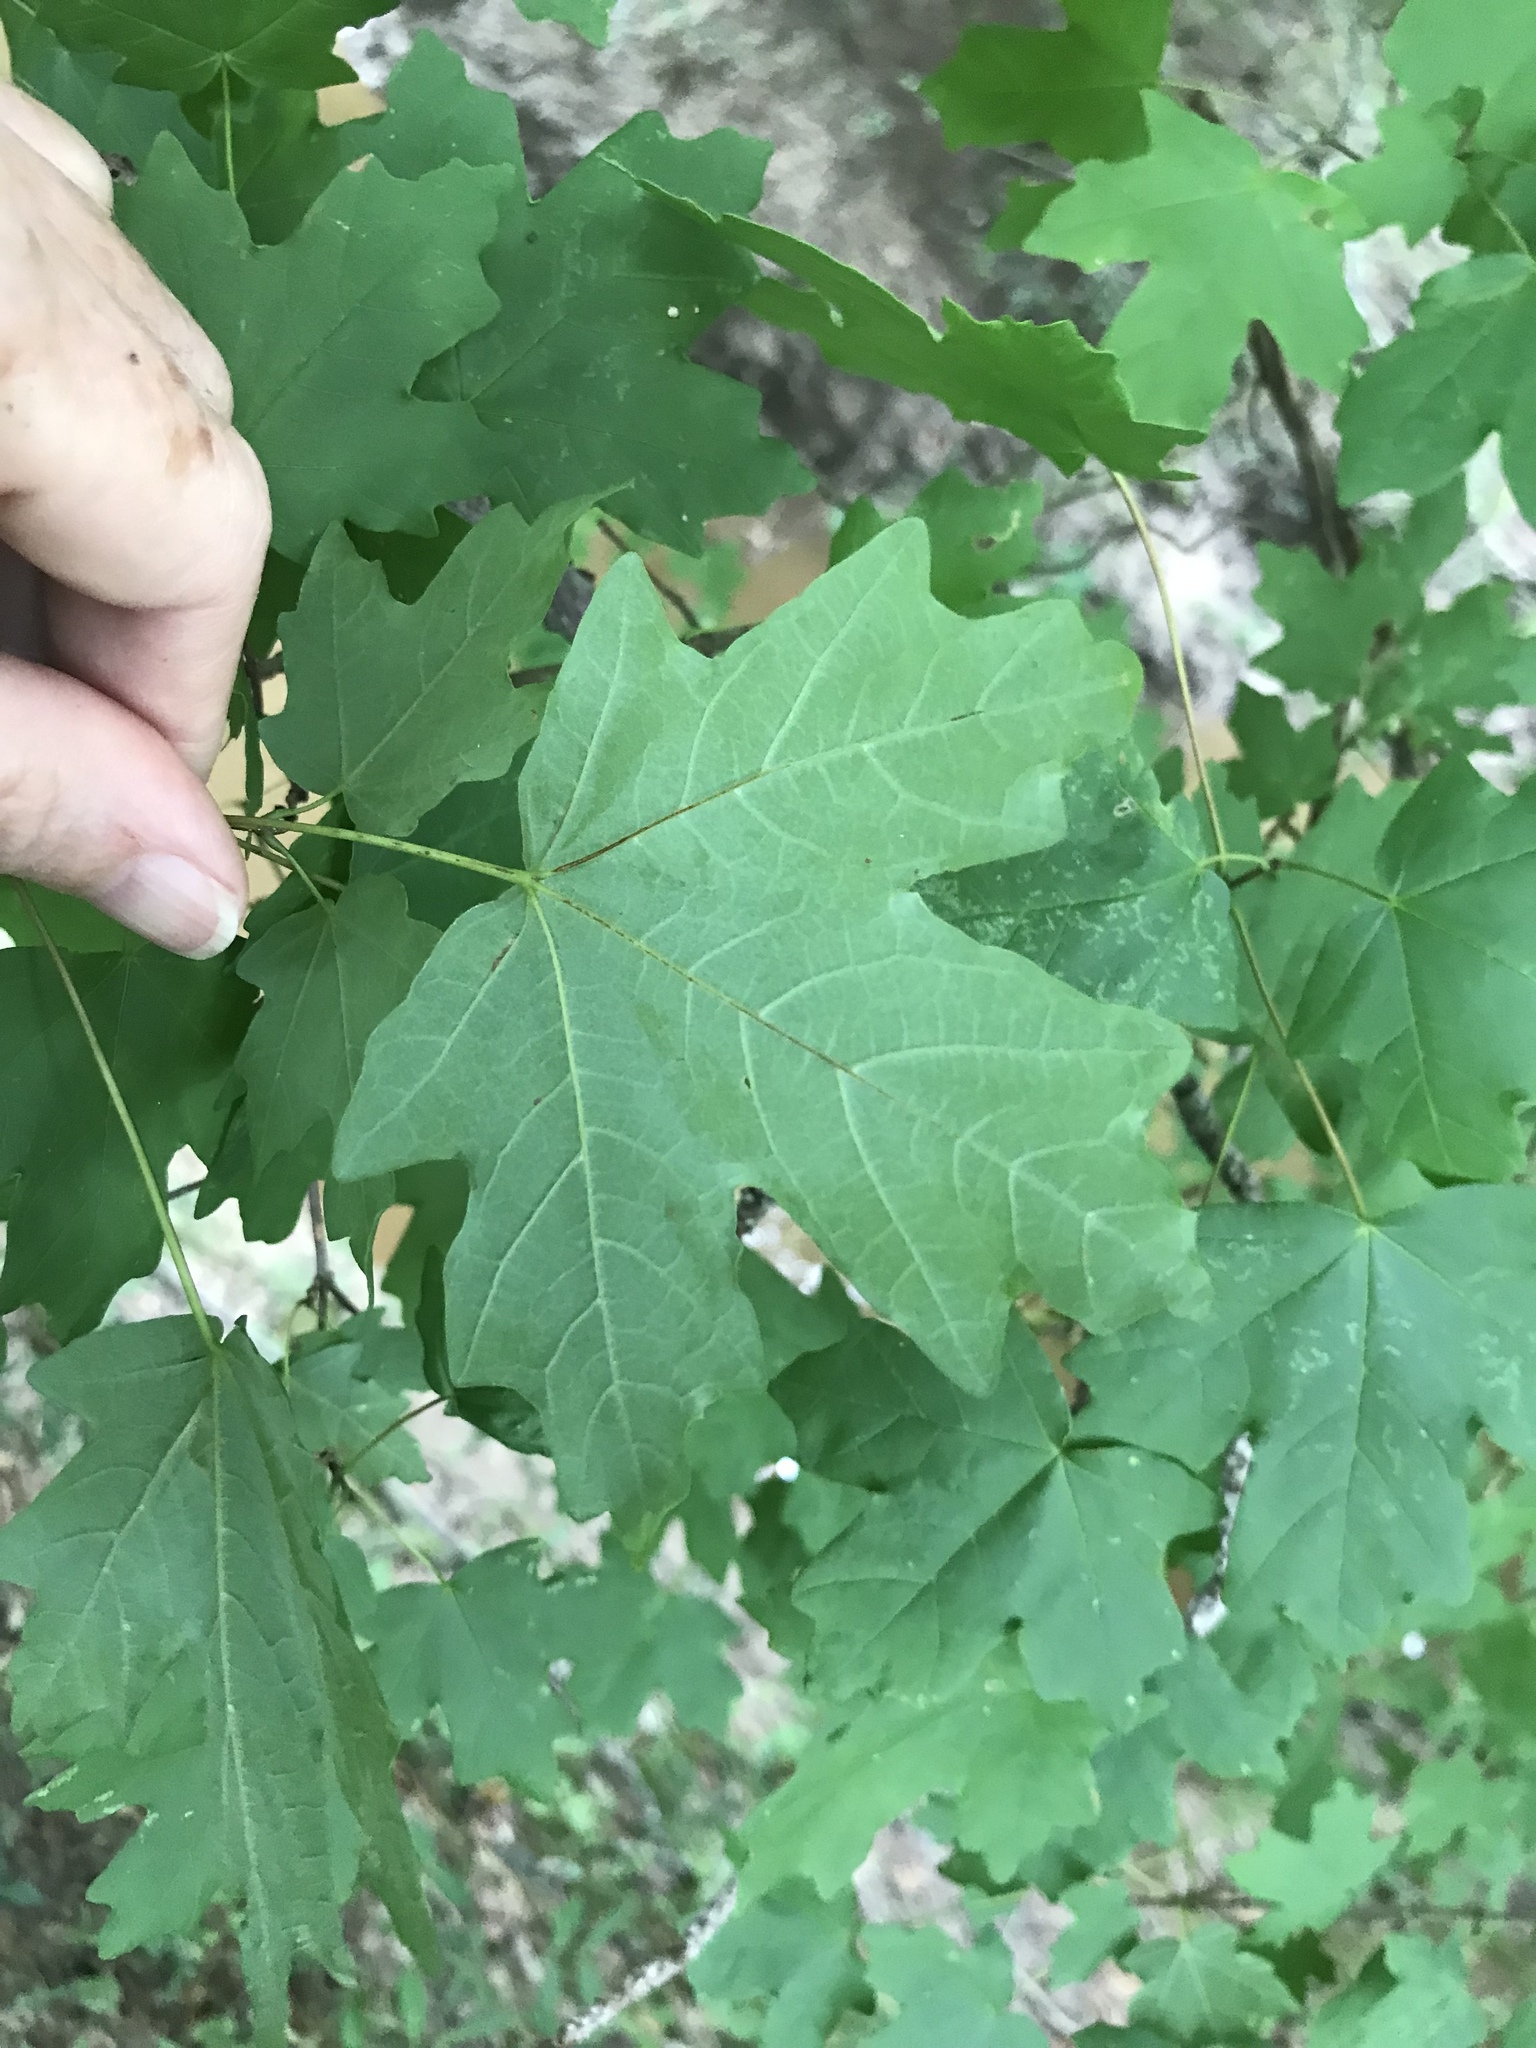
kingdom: Plantae
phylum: Tracheophyta
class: Magnoliopsida
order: Sapindales
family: Sapindaceae
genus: Acer
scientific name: Acer floridanum
